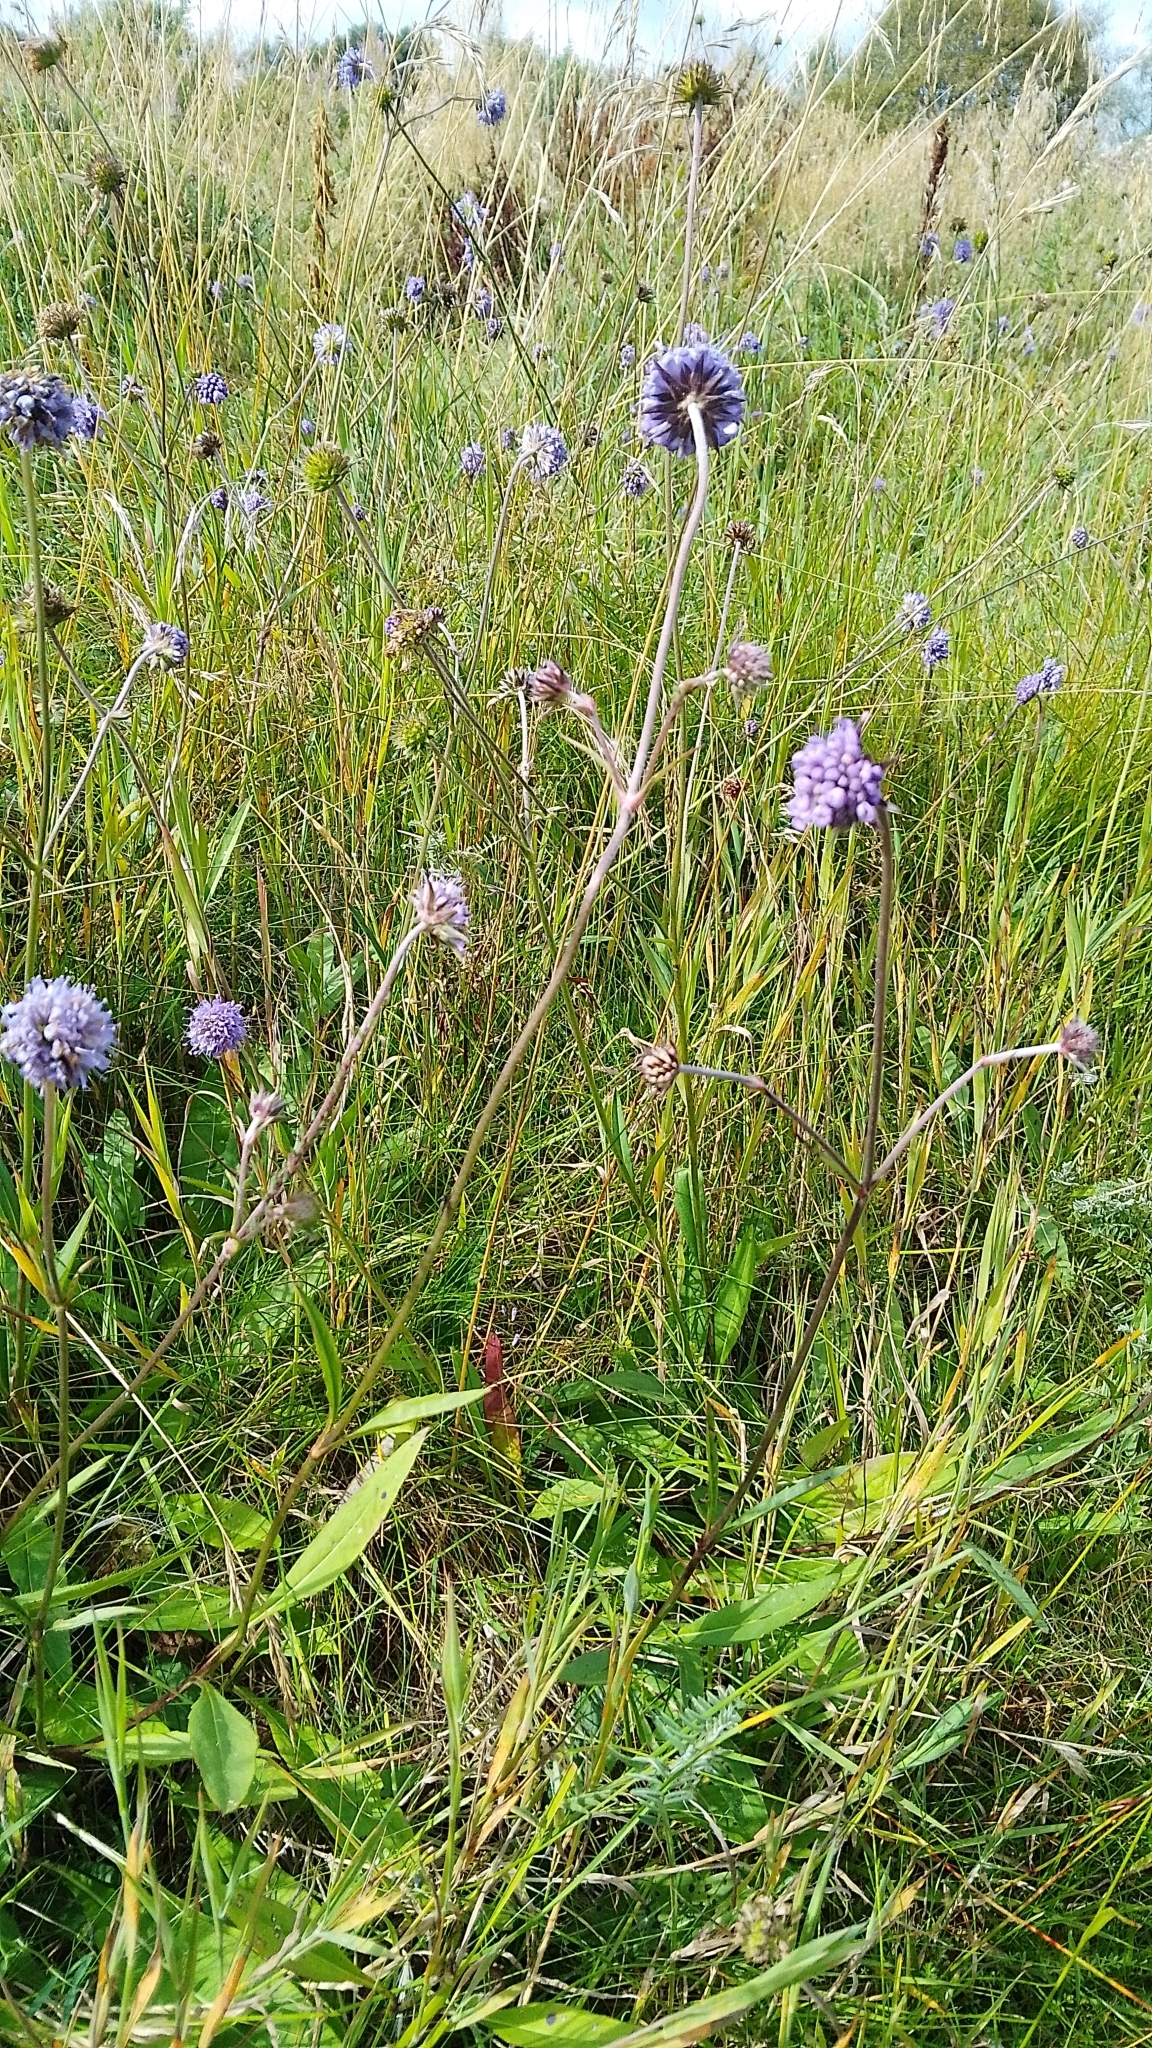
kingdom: Plantae
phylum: Tracheophyta
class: Magnoliopsida
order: Dipsacales
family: Caprifoliaceae
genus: Succisa
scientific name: Succisa pratensis
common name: Devil's-bit
